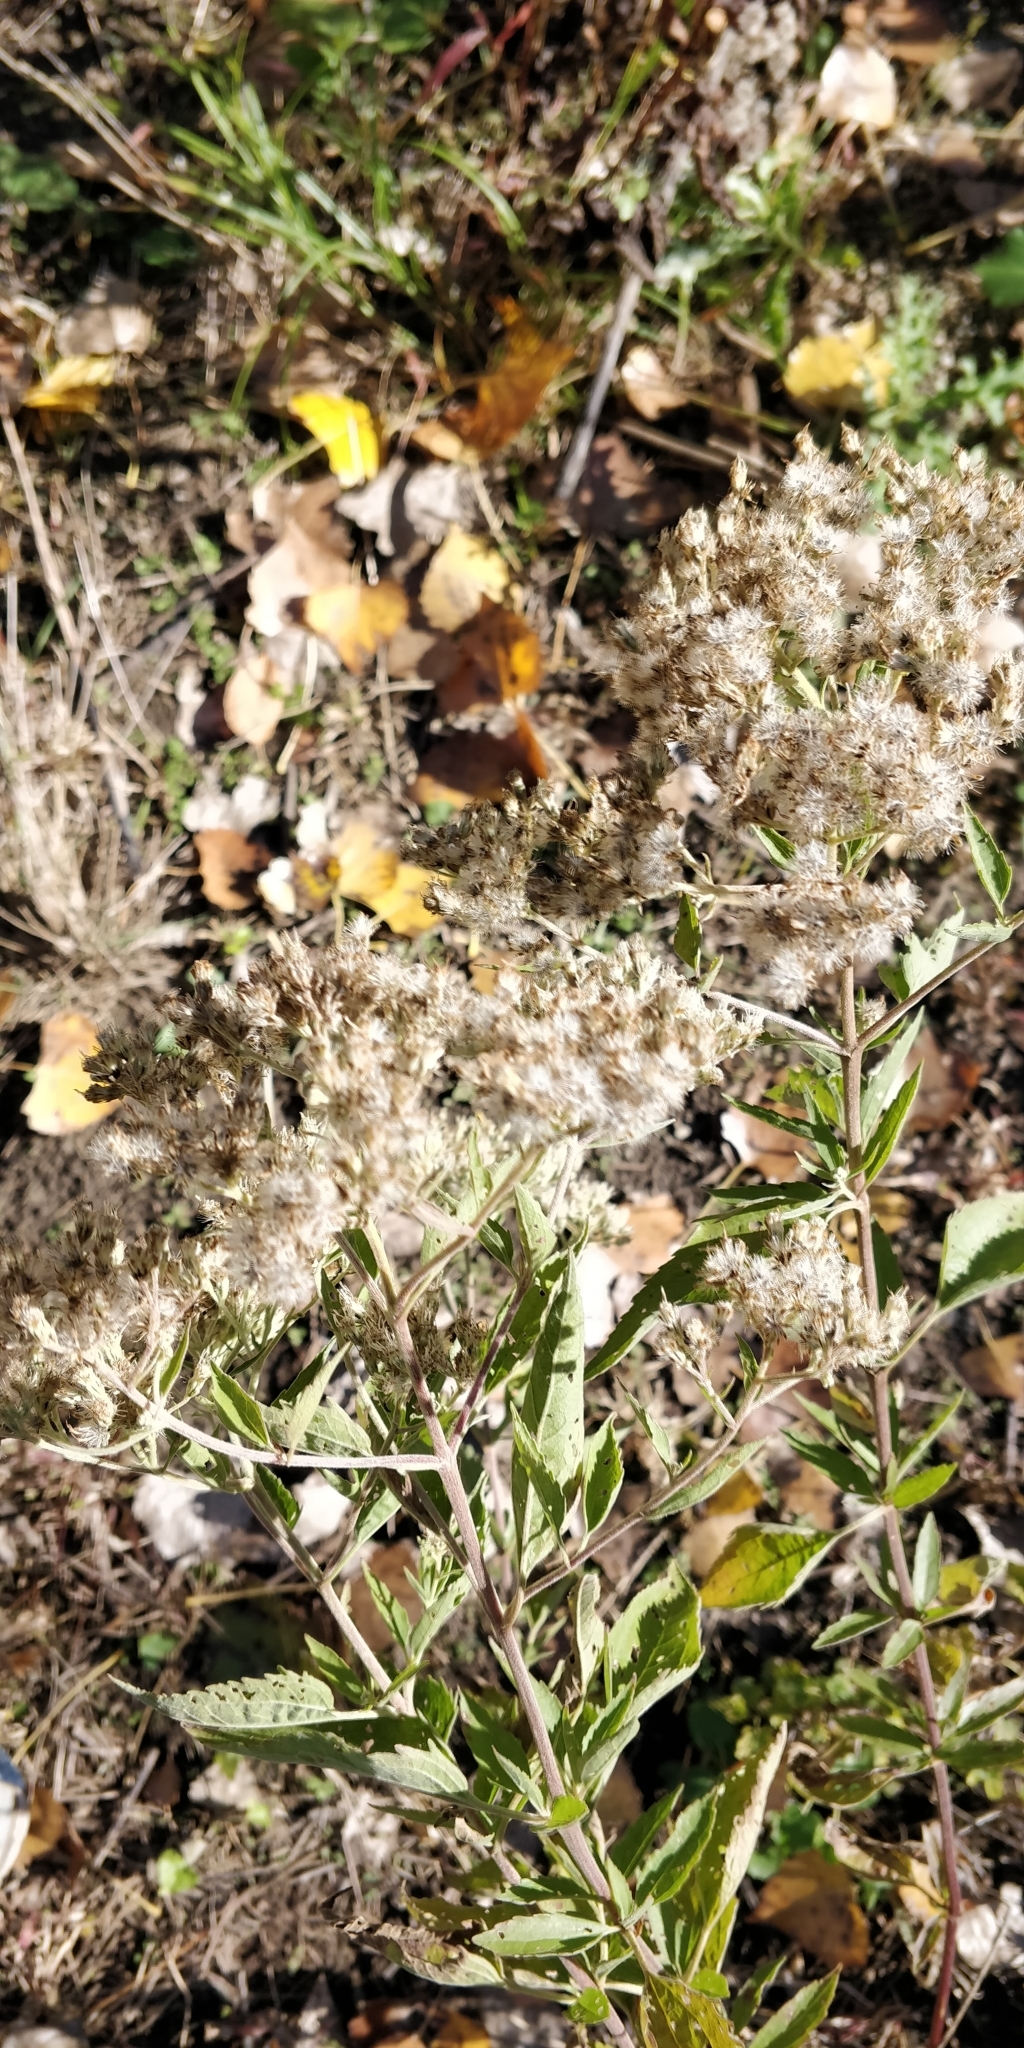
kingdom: Plantae
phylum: Tracheophyta
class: Magnoliopsida
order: Asterales
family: Asteraceae
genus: Eupatorium
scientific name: Eupatorium serotinum
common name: Late boneset
